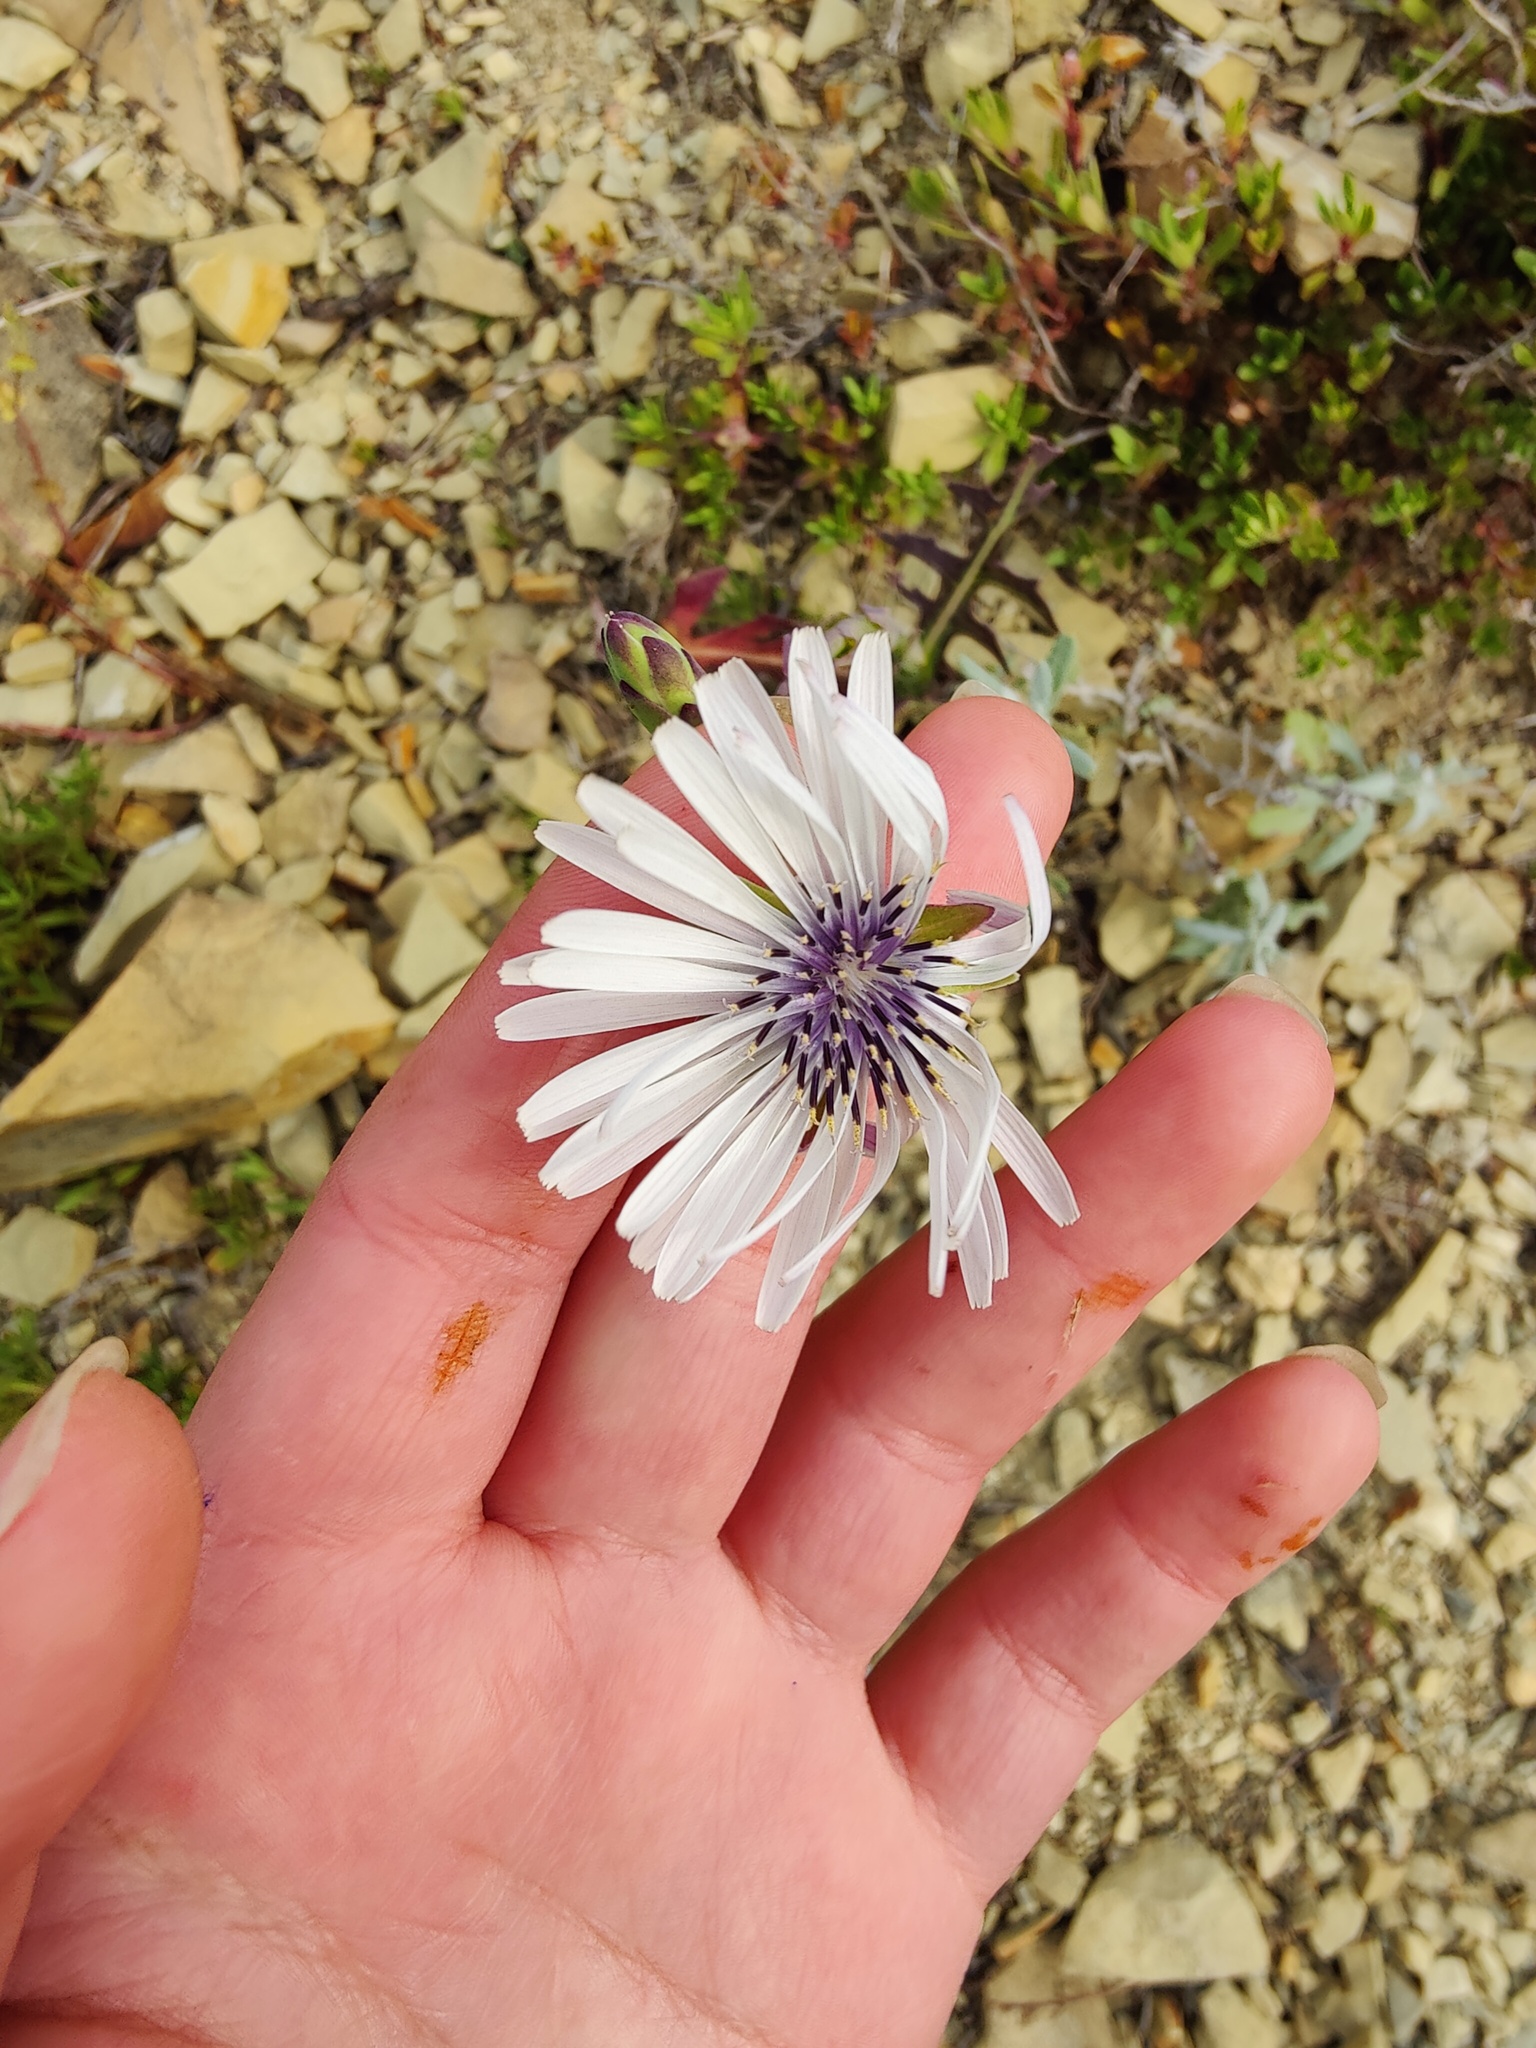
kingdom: Plantae
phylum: Tracheophyta
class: Magnoliopsida
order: Asterales
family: Asteraceae
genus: Lactuca
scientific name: Lactuca tuberosa
